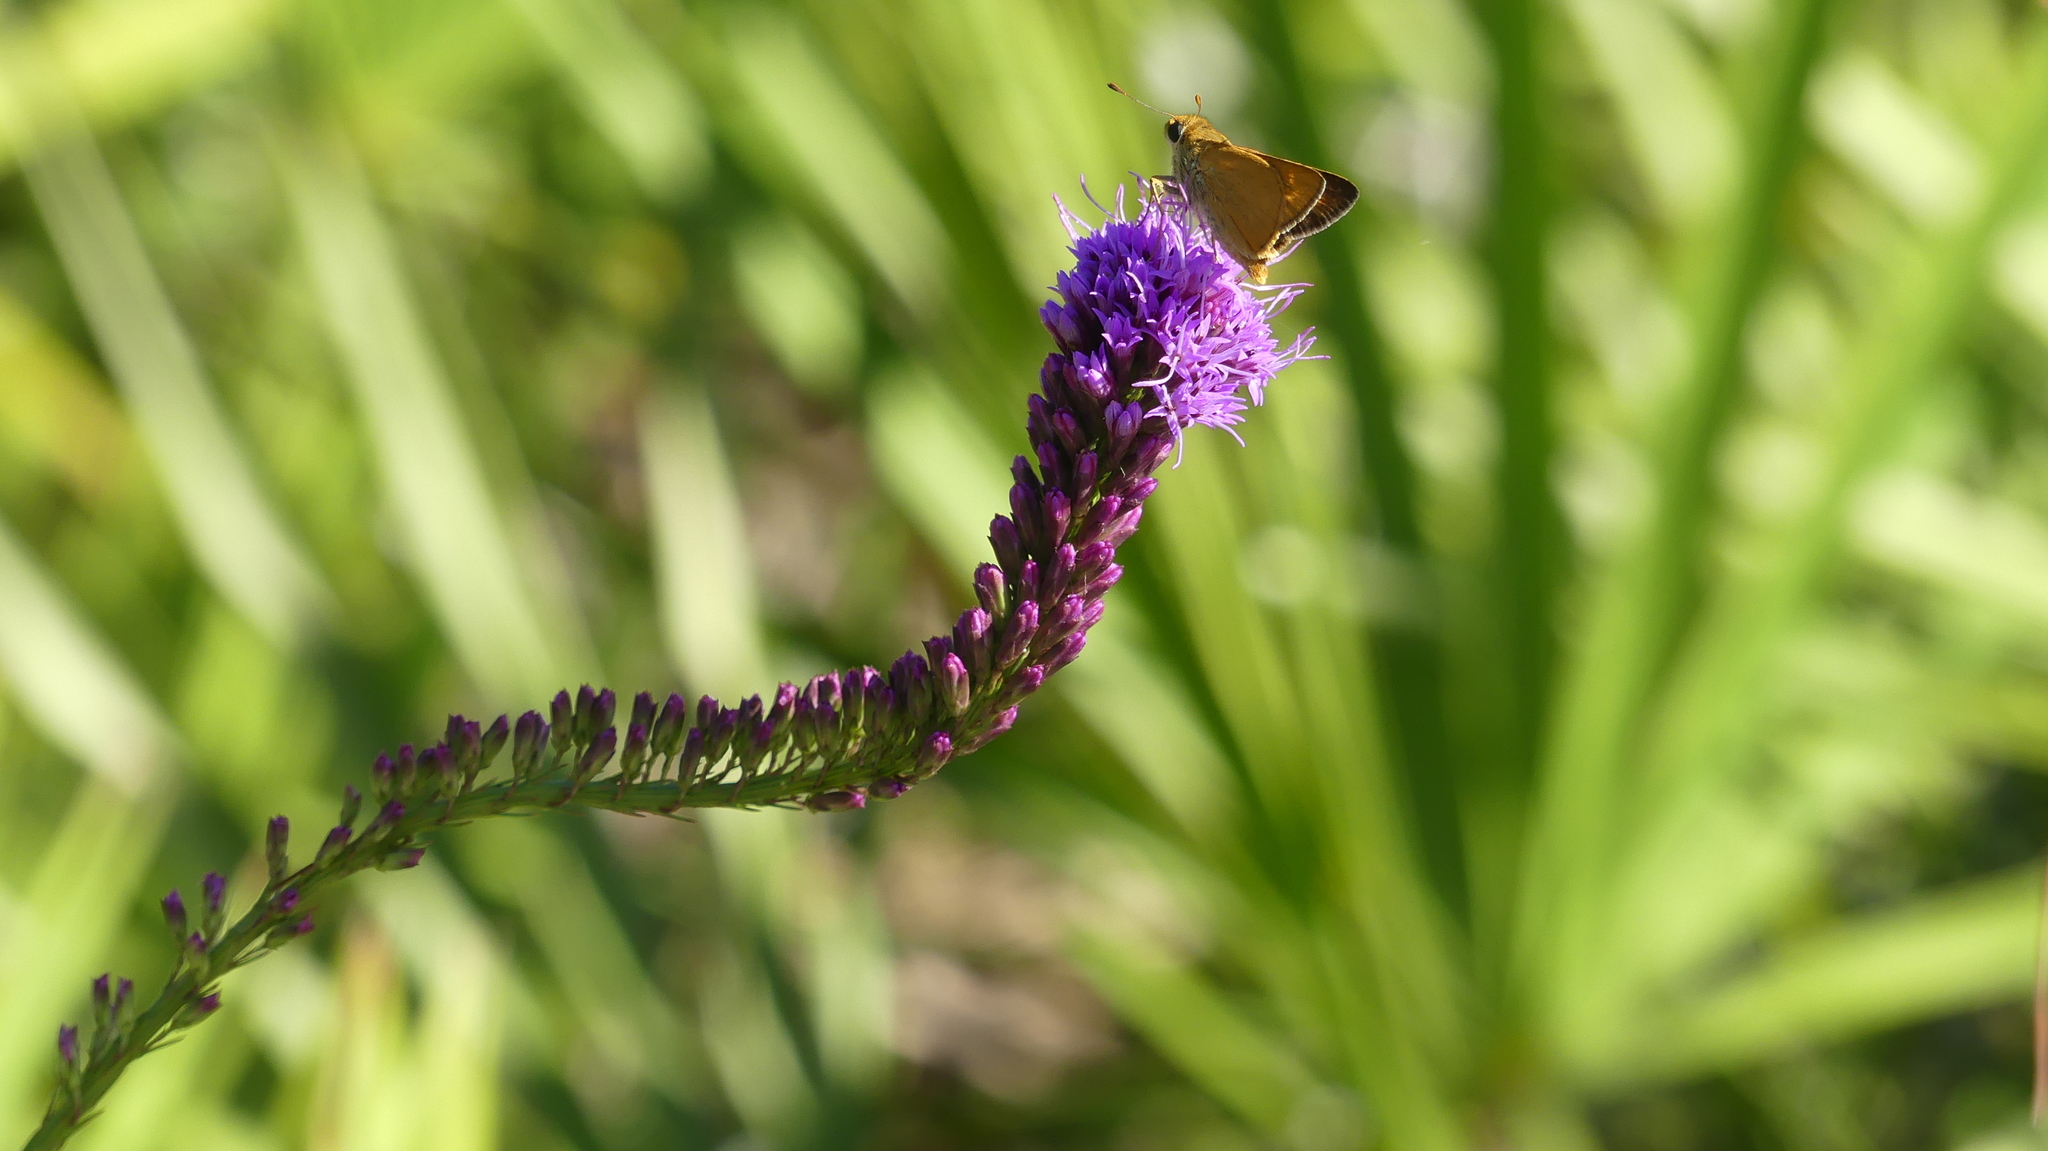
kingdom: Animalia
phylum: Arthropoda
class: Insecta
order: Lepidoptera
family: Hesperiidae
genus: Hesperia
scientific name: Hesperia meskei
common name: Meske's skipper
